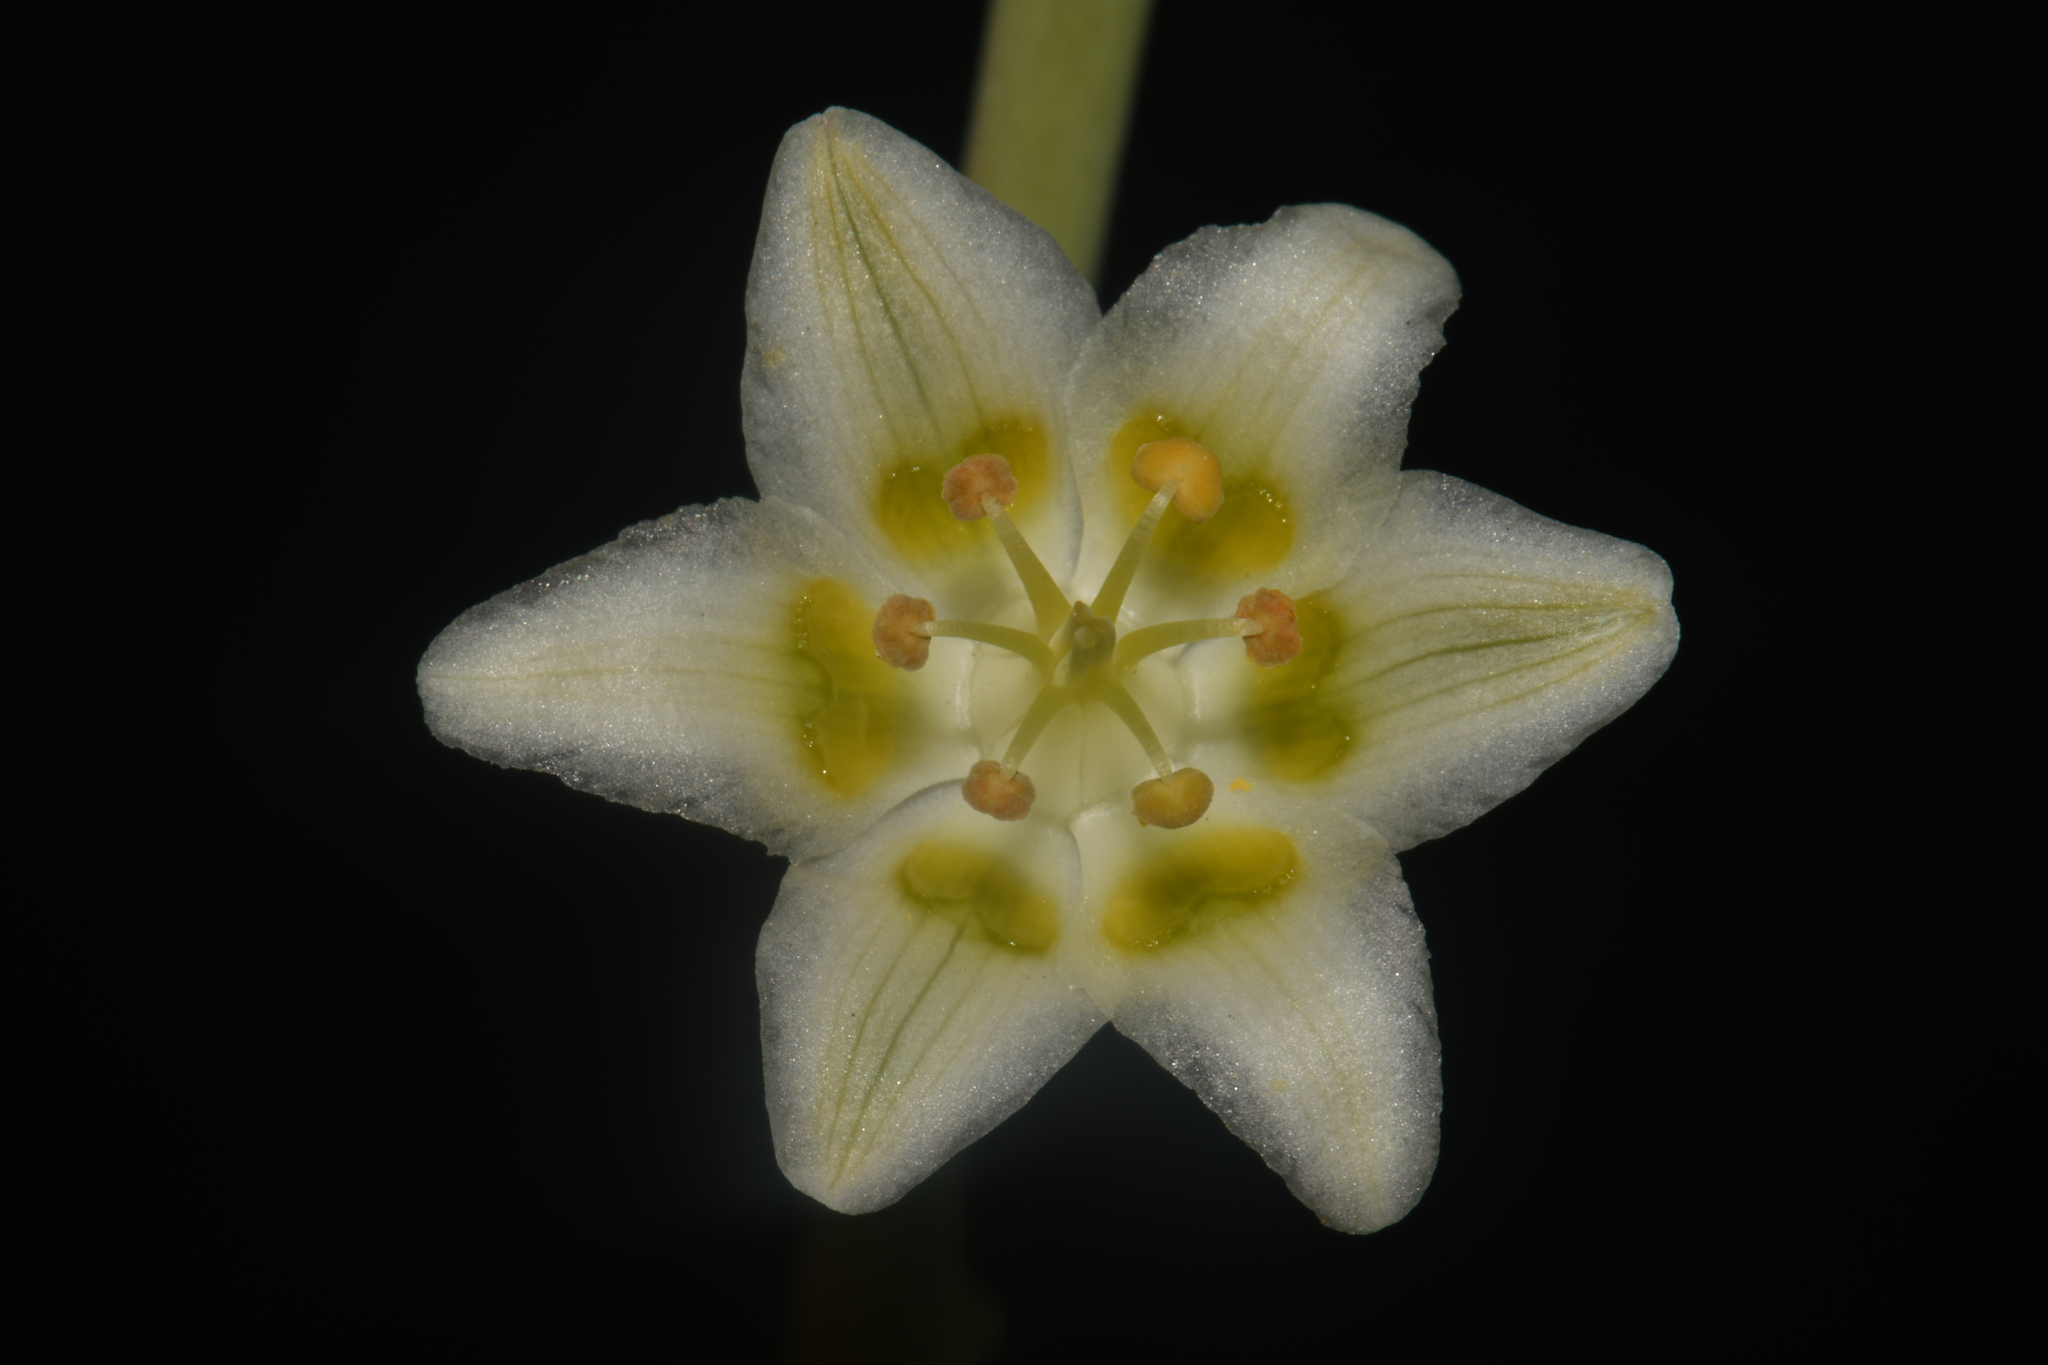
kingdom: Plantae
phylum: Tracheophyta
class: Liliopsida
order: Liliales
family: Melanthiaceae
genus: Anticlea
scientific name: Anticlea elegans
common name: Mountain death camas
